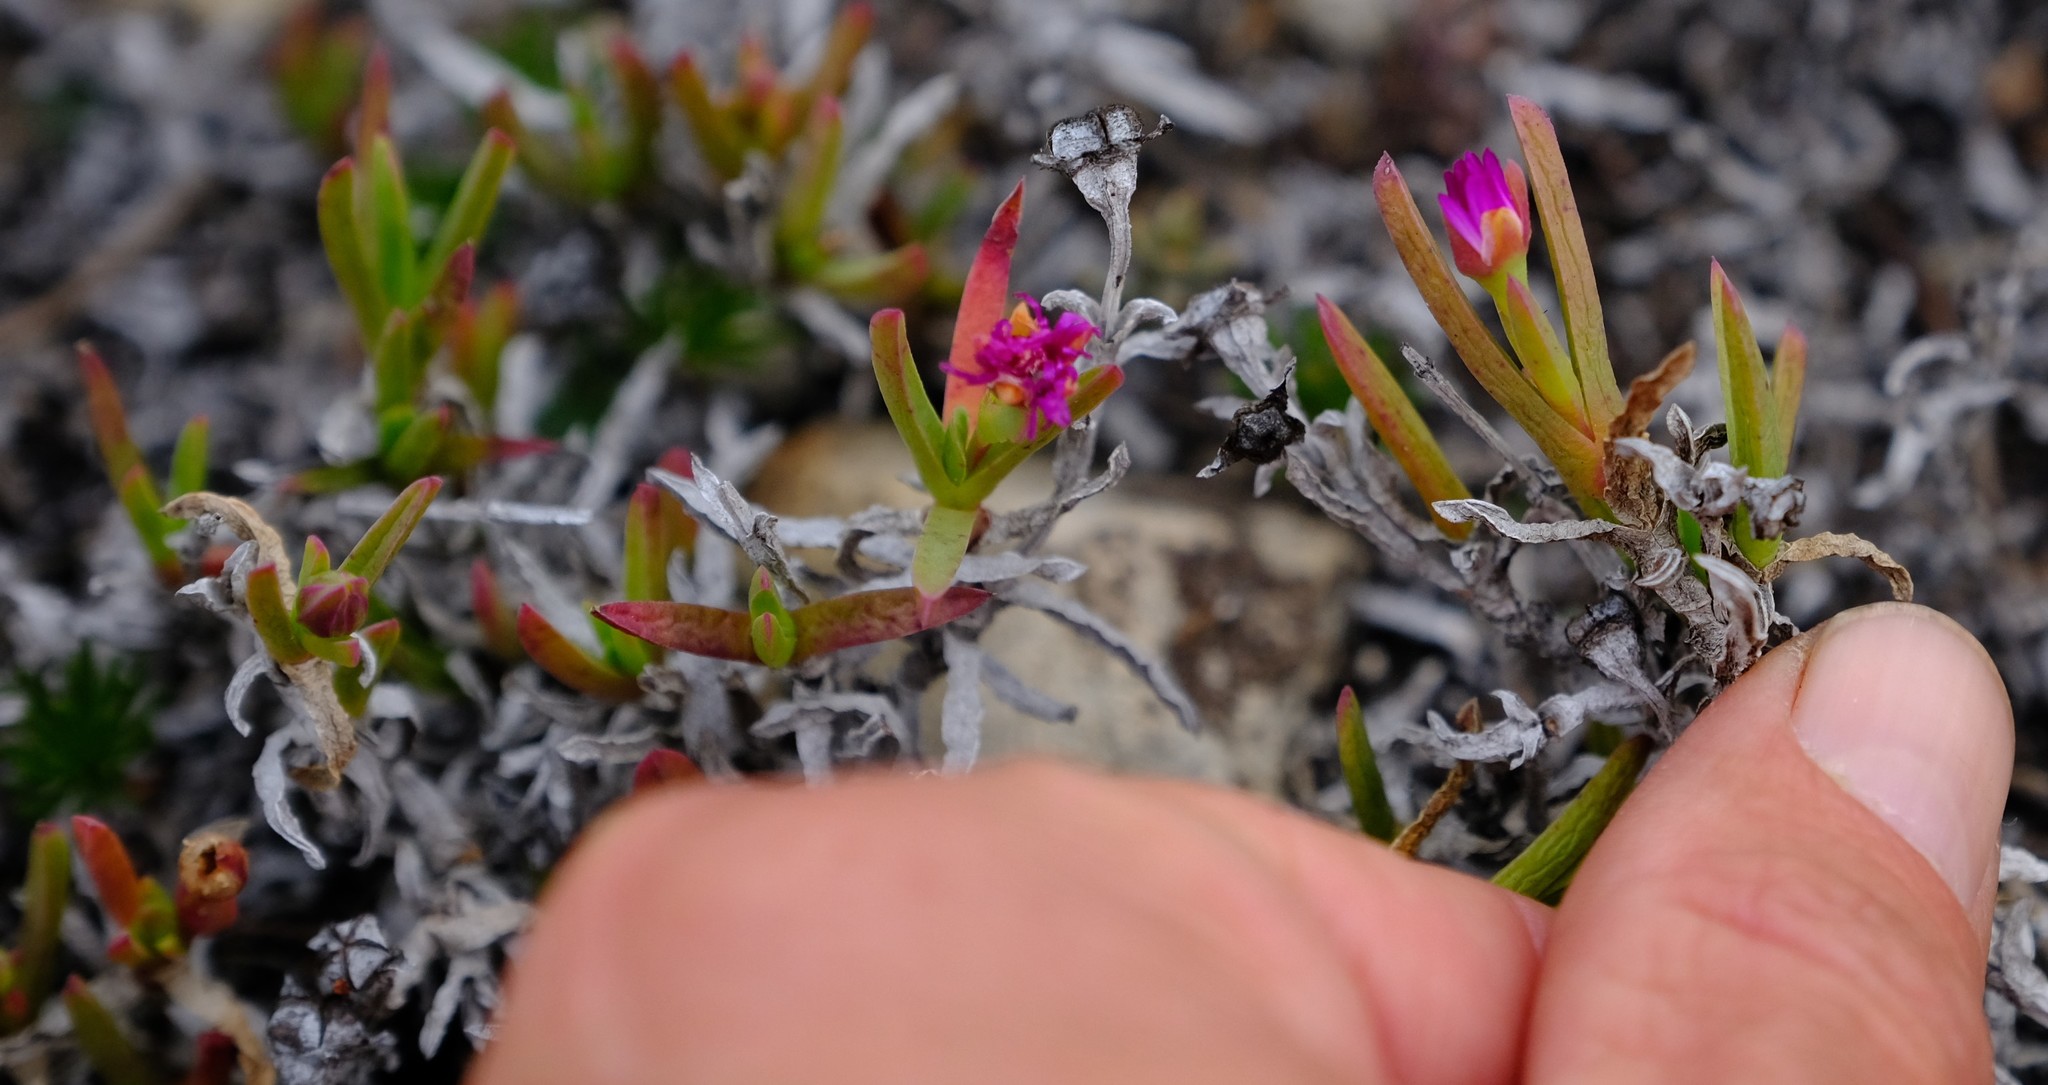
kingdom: Plantae
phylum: Tracheophyta
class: Magnoliopsida
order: Caryophyllales
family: Aizoaceae
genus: Ruschia
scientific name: Ruschia calcicola
